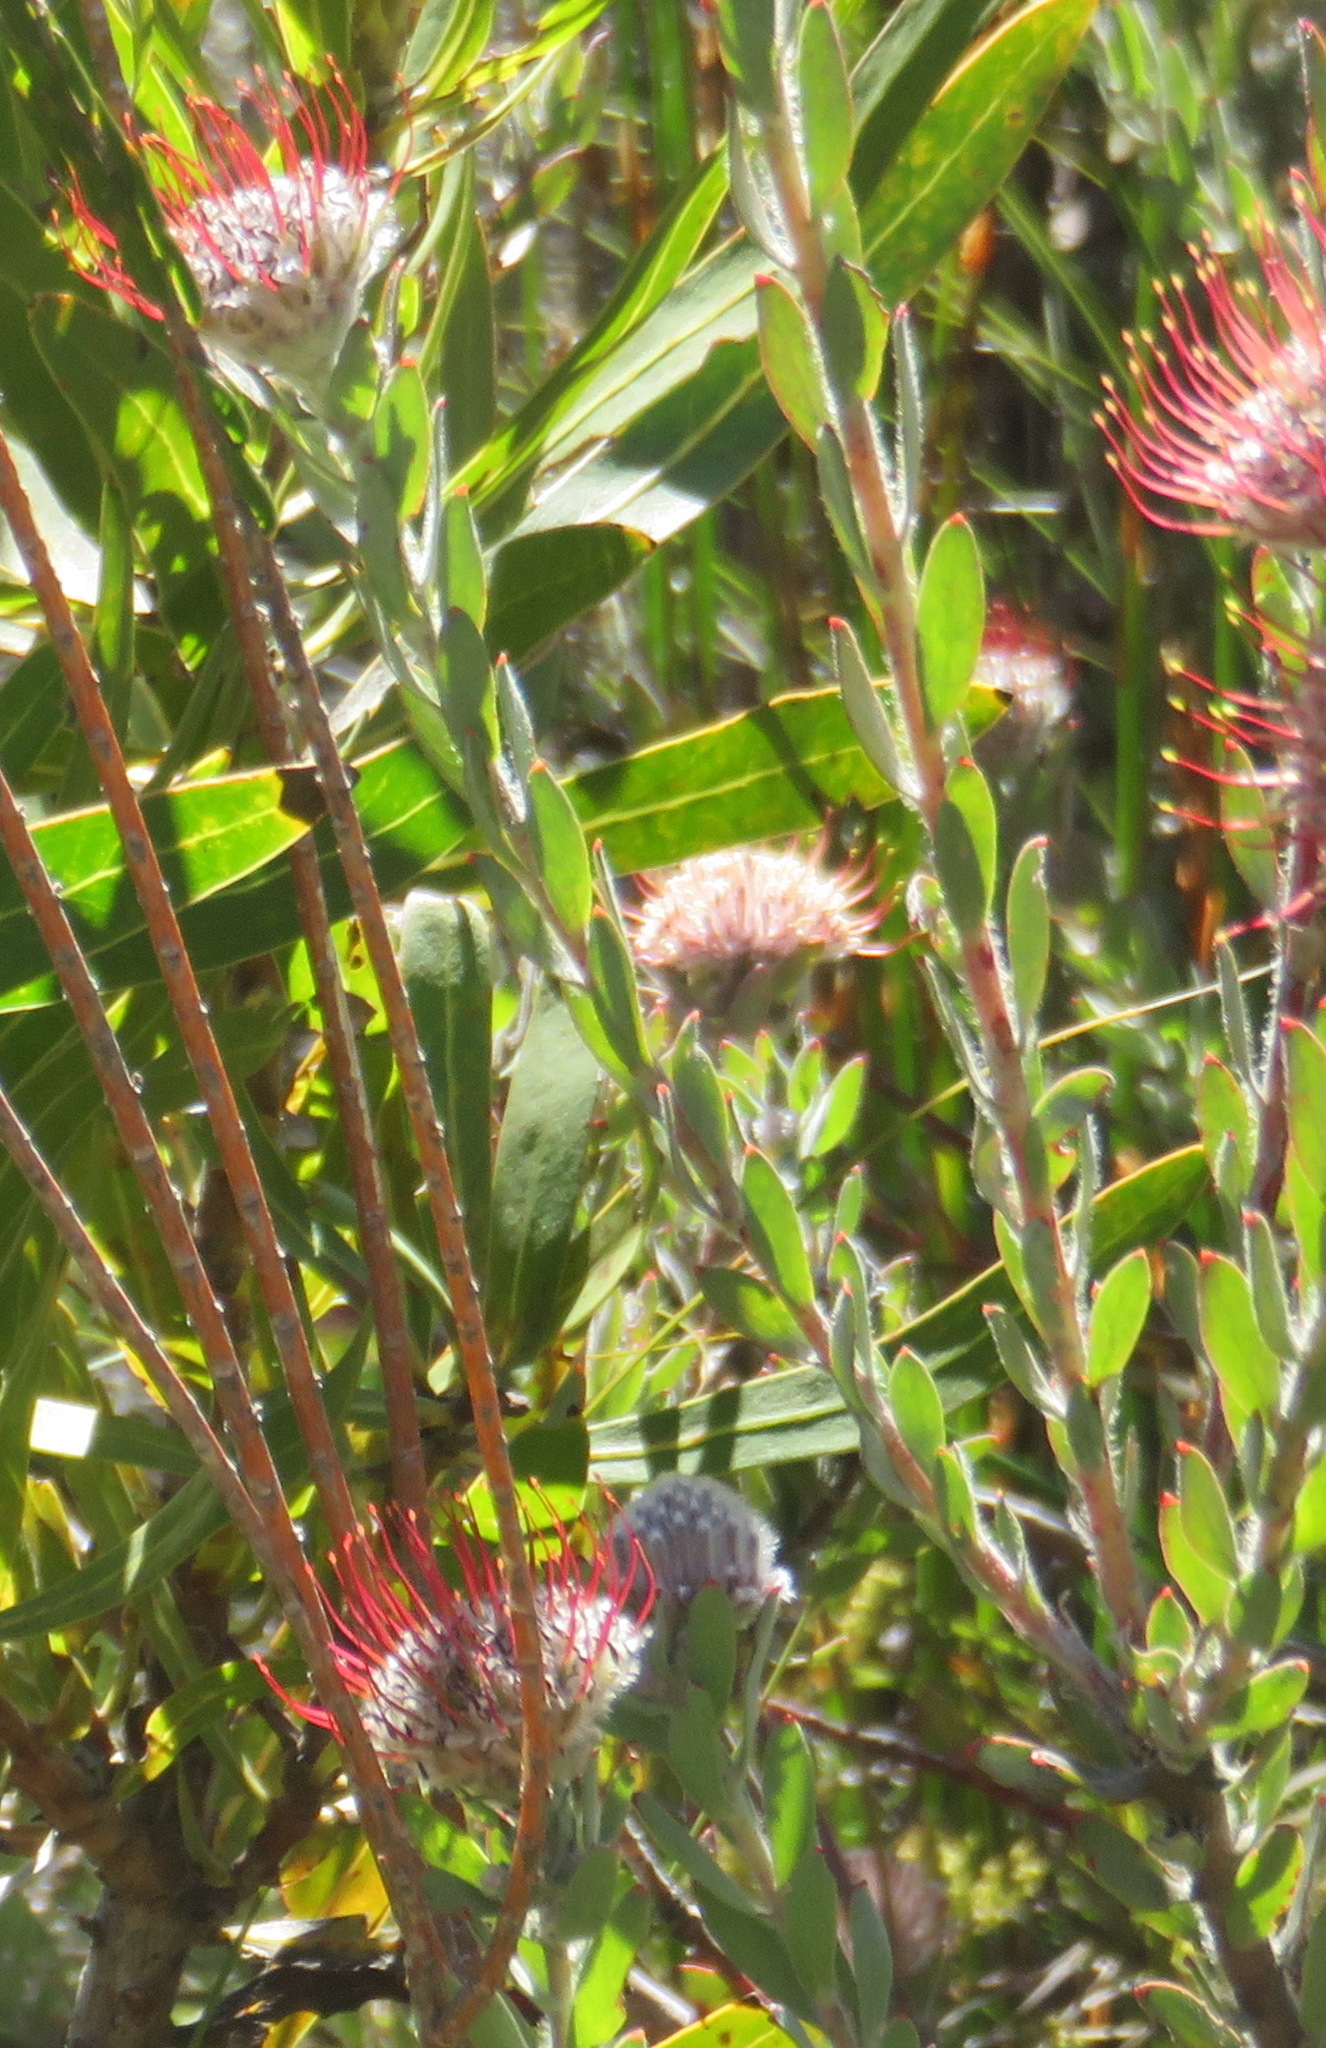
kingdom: Plantae
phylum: Tracheophyta
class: Magnoliopsida
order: Proteales
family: Proteaceae
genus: Leucospermum
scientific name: Leucospermum calligerum
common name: Arid pincushion
